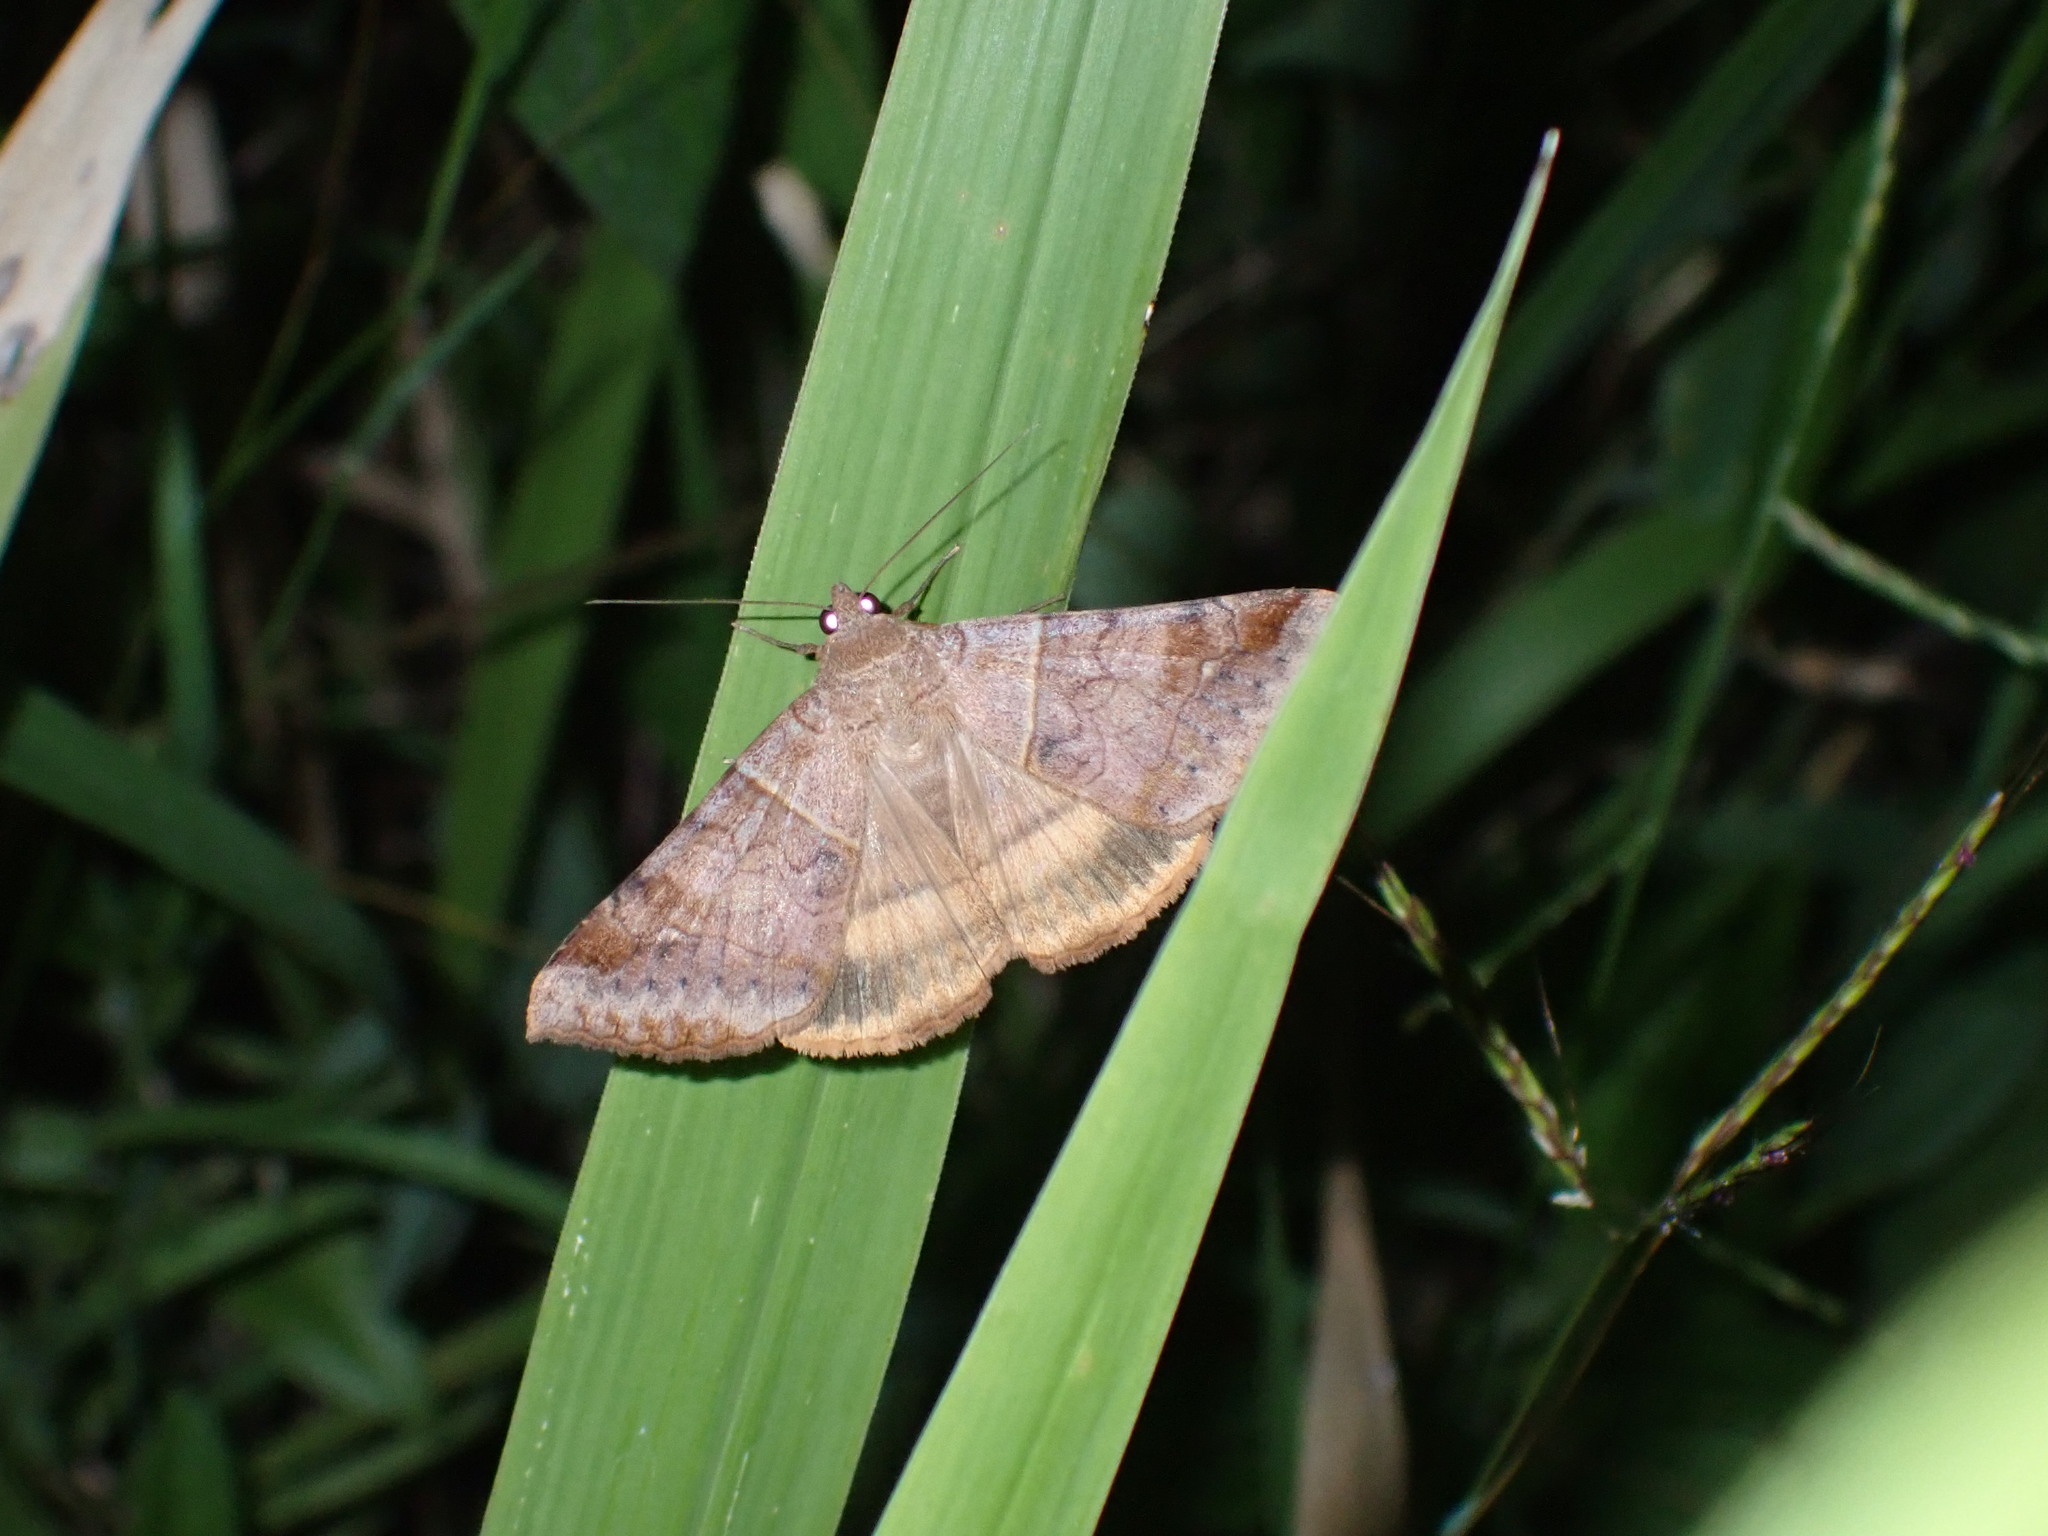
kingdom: Animalia
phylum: Arthropoda
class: Insecta
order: Lepidoptera
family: Erebidae
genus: Mocis
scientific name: Mocis undata
